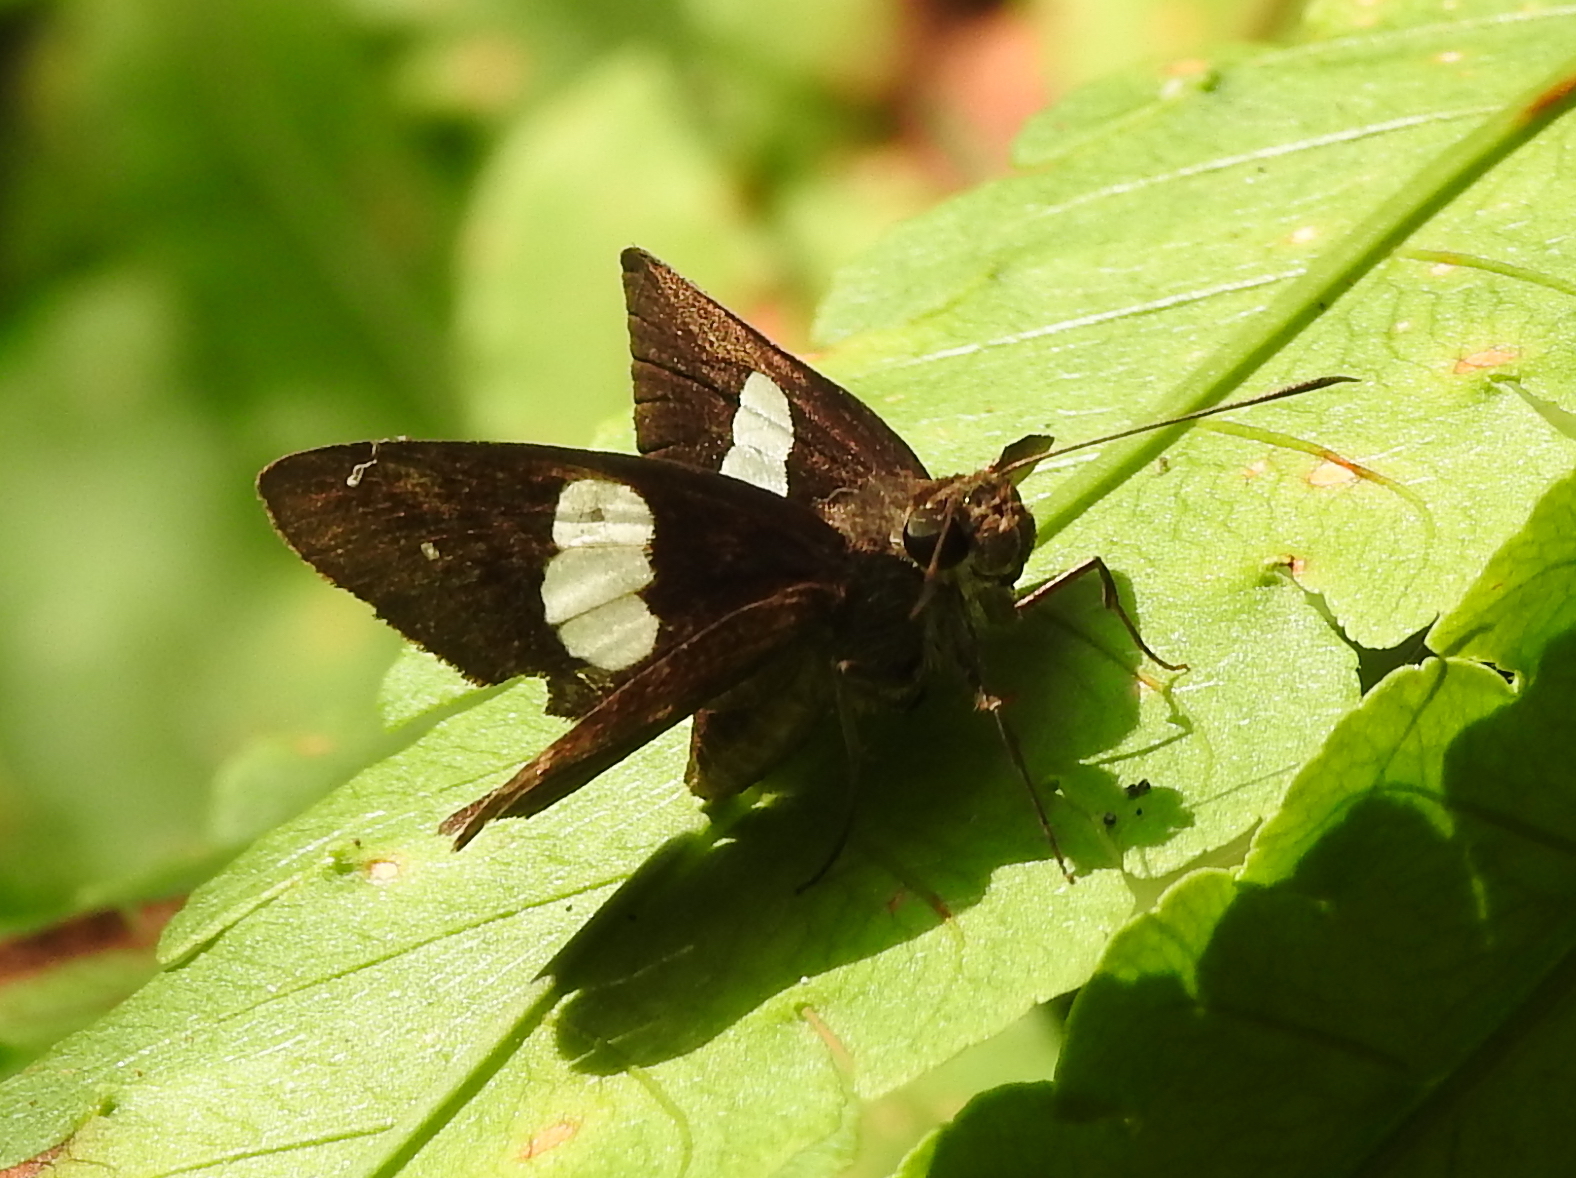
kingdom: Animalia
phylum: Arthropoda
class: Insecta
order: Lepidoptera
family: Hesperiidae
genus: Notocrypta
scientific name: Notocrypta paralysos
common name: Common banded demon
